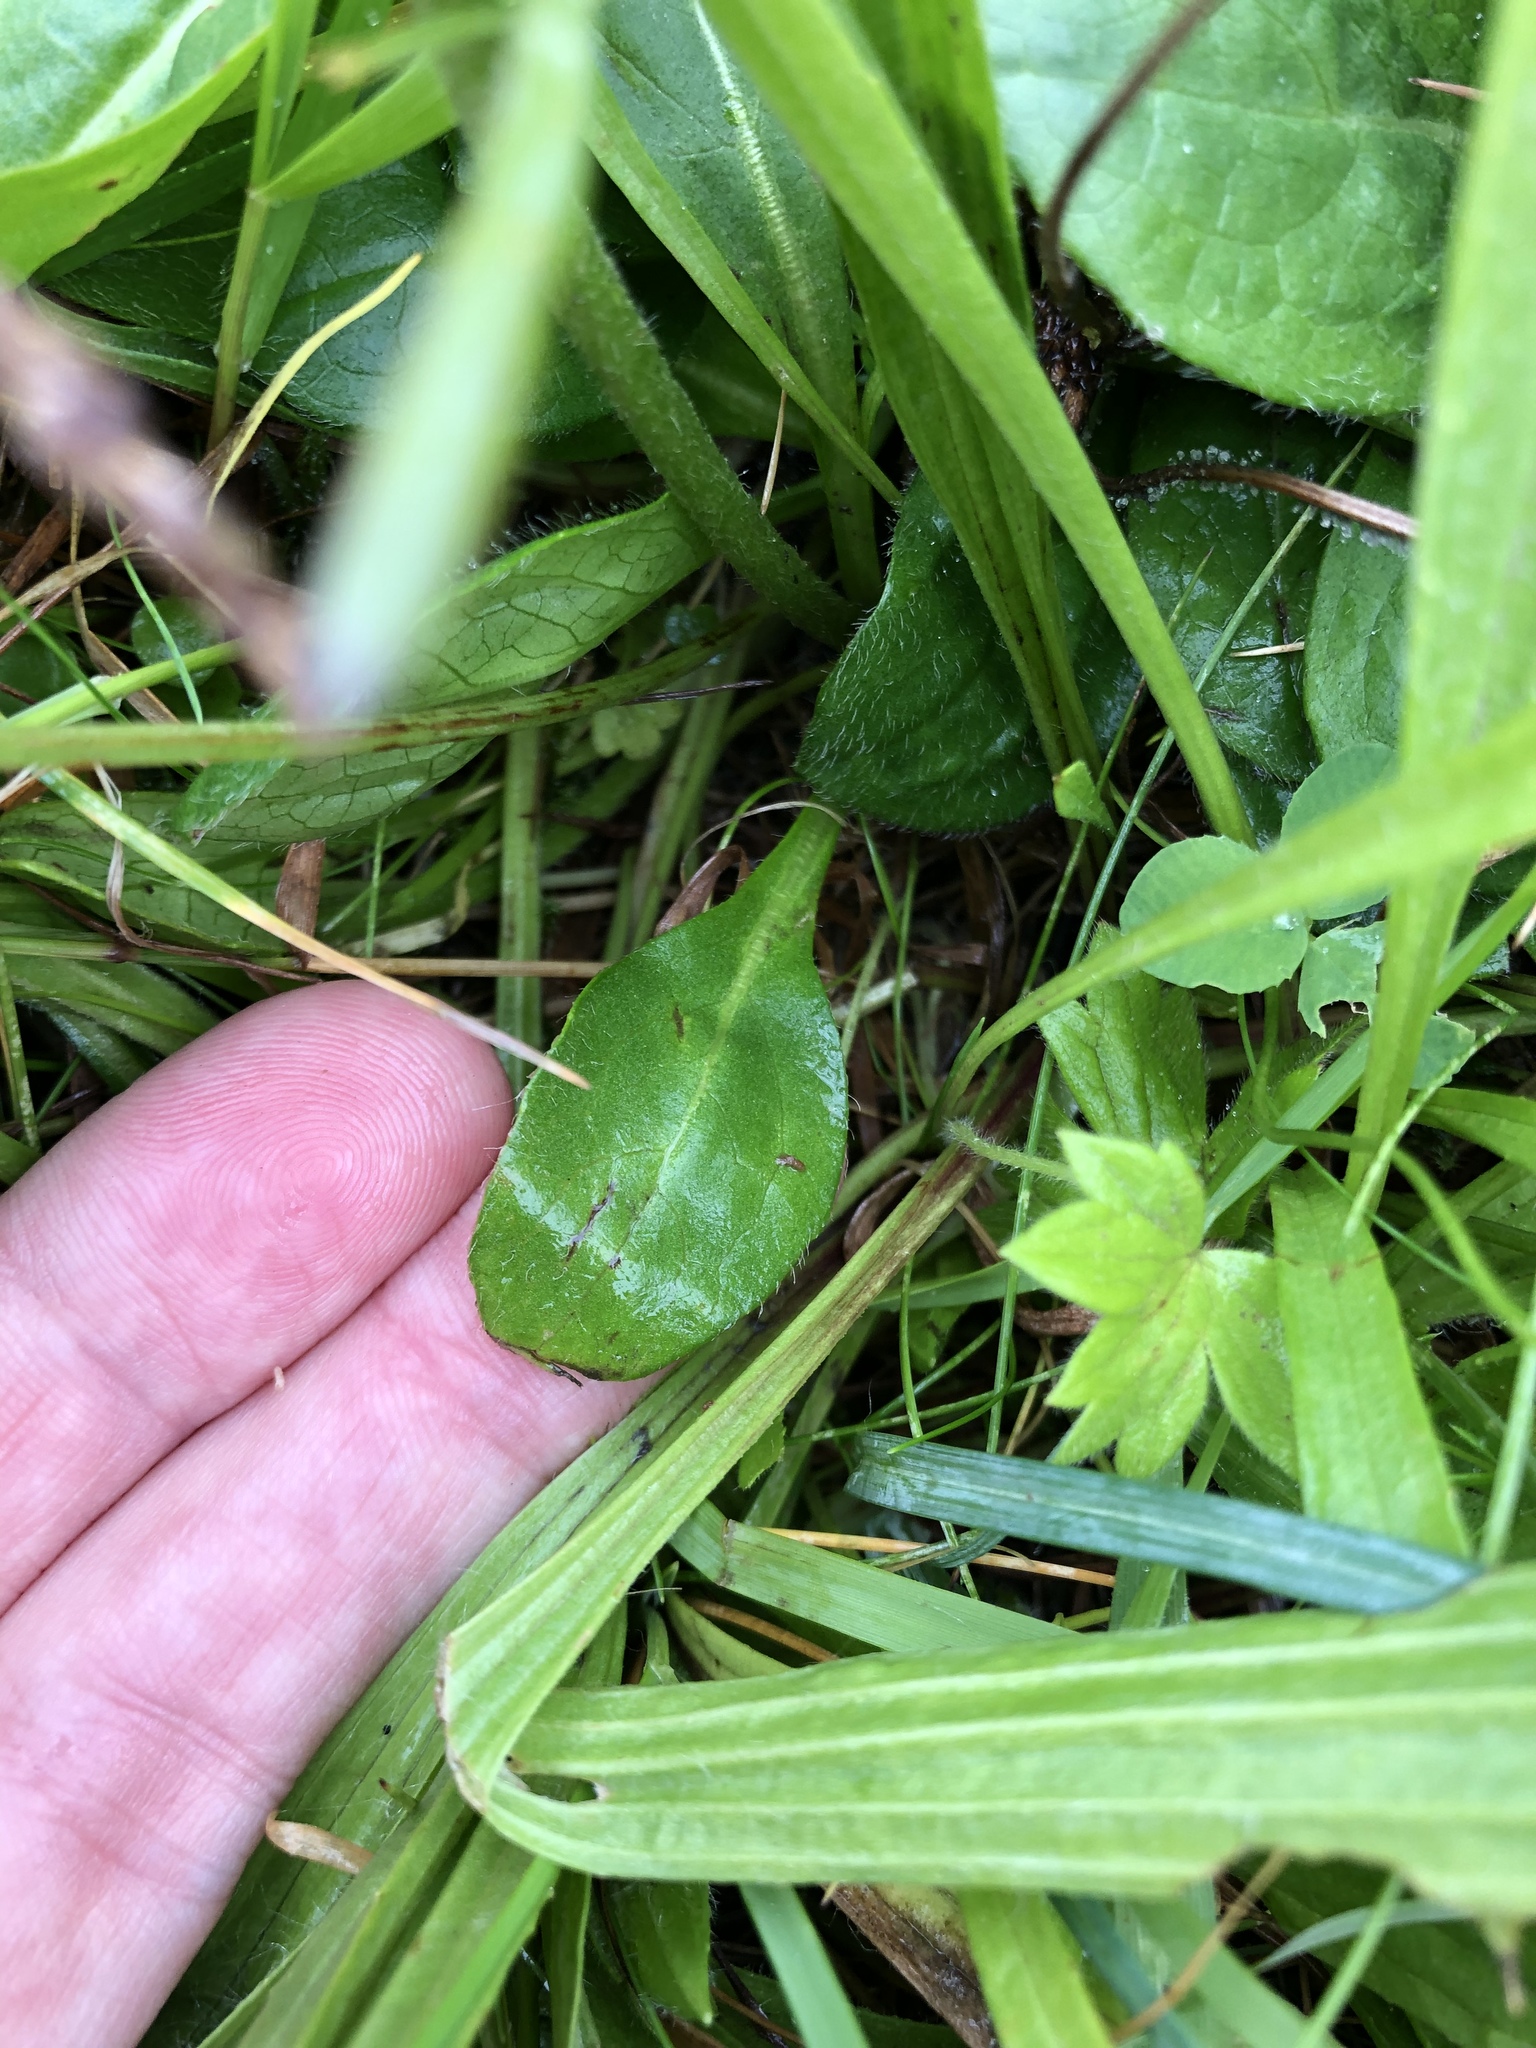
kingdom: Plantae
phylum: Tracheophyta
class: Magnoliopsida
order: Dipsacales
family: Caprifoliaceae
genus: Succisa
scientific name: Succisa pratensis
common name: Devil's-bit
